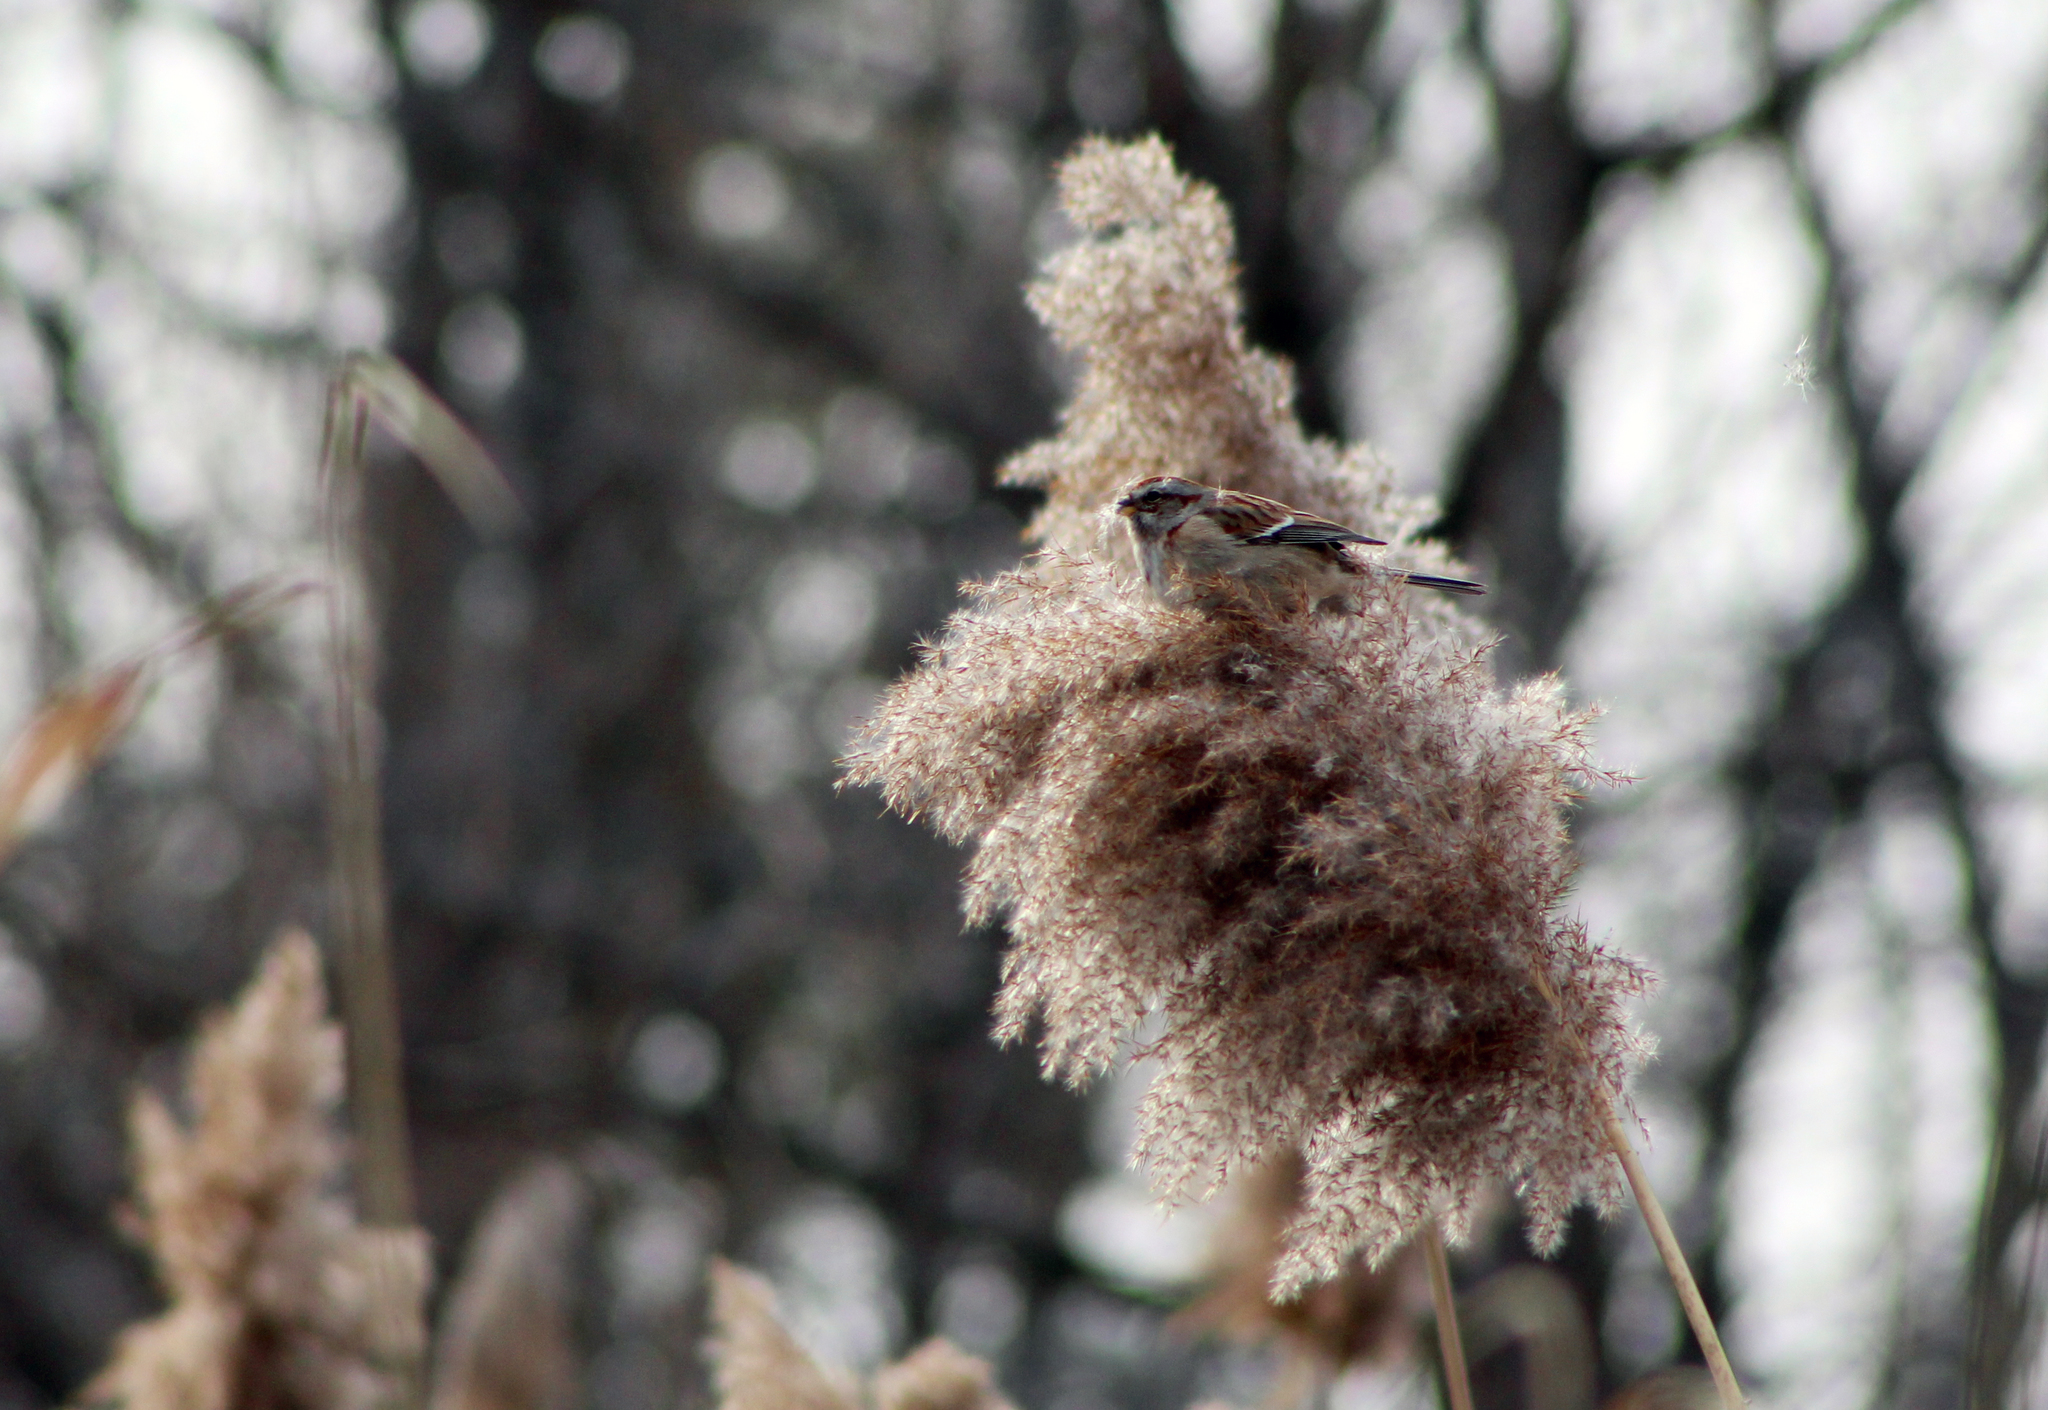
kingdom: Animalia
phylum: Chordata
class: Aves
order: Passeriformes
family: Passerellidae
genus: Spizelloides
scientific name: Spizelloides arborea
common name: American tree sparrow
